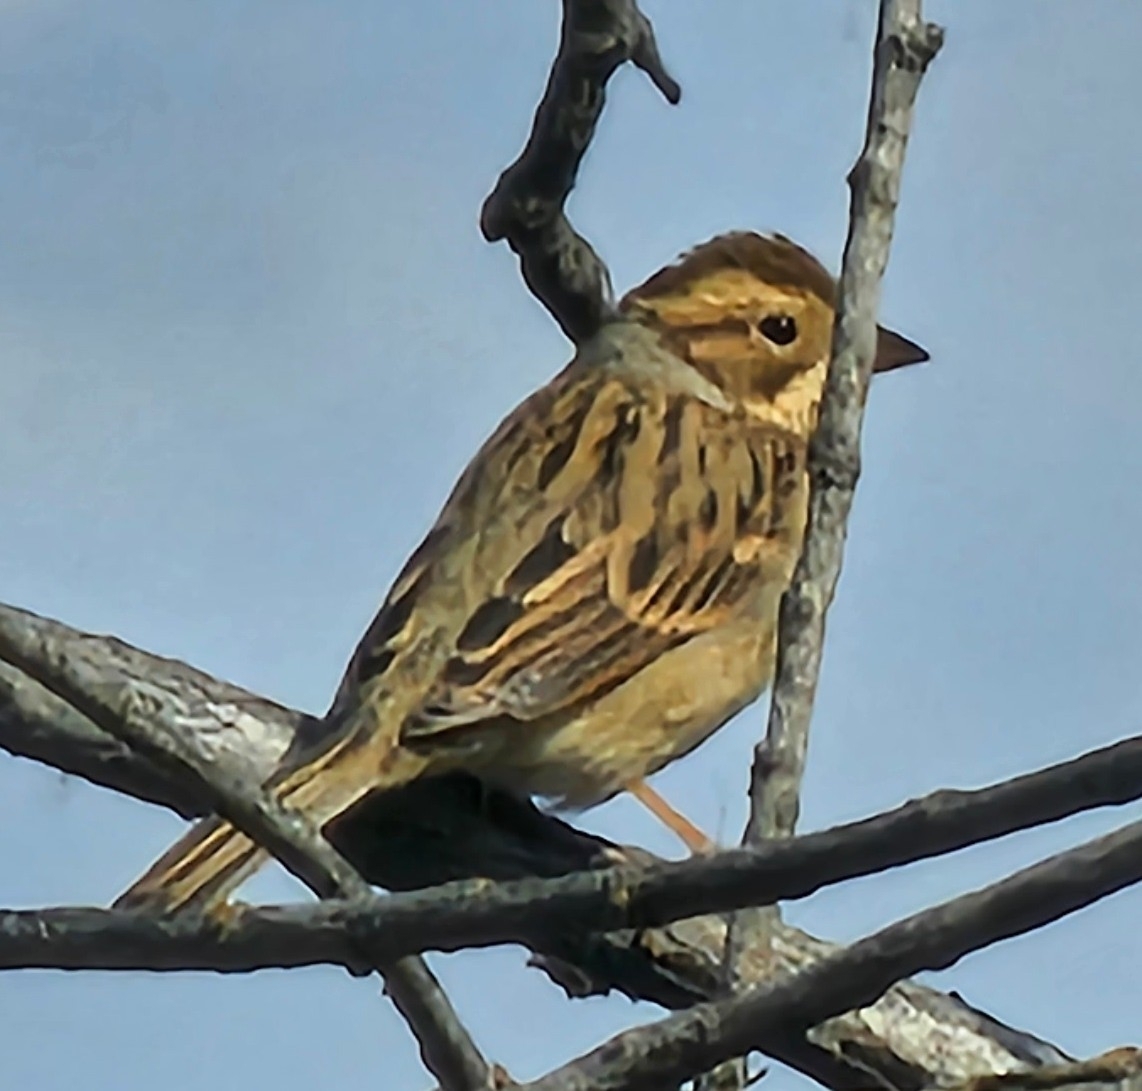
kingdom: Animalia
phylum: Chordata
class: Aves
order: Passeriformes
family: Passerellidae
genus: Spizella
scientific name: Spizella pallida
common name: Clay-colored sparrow
